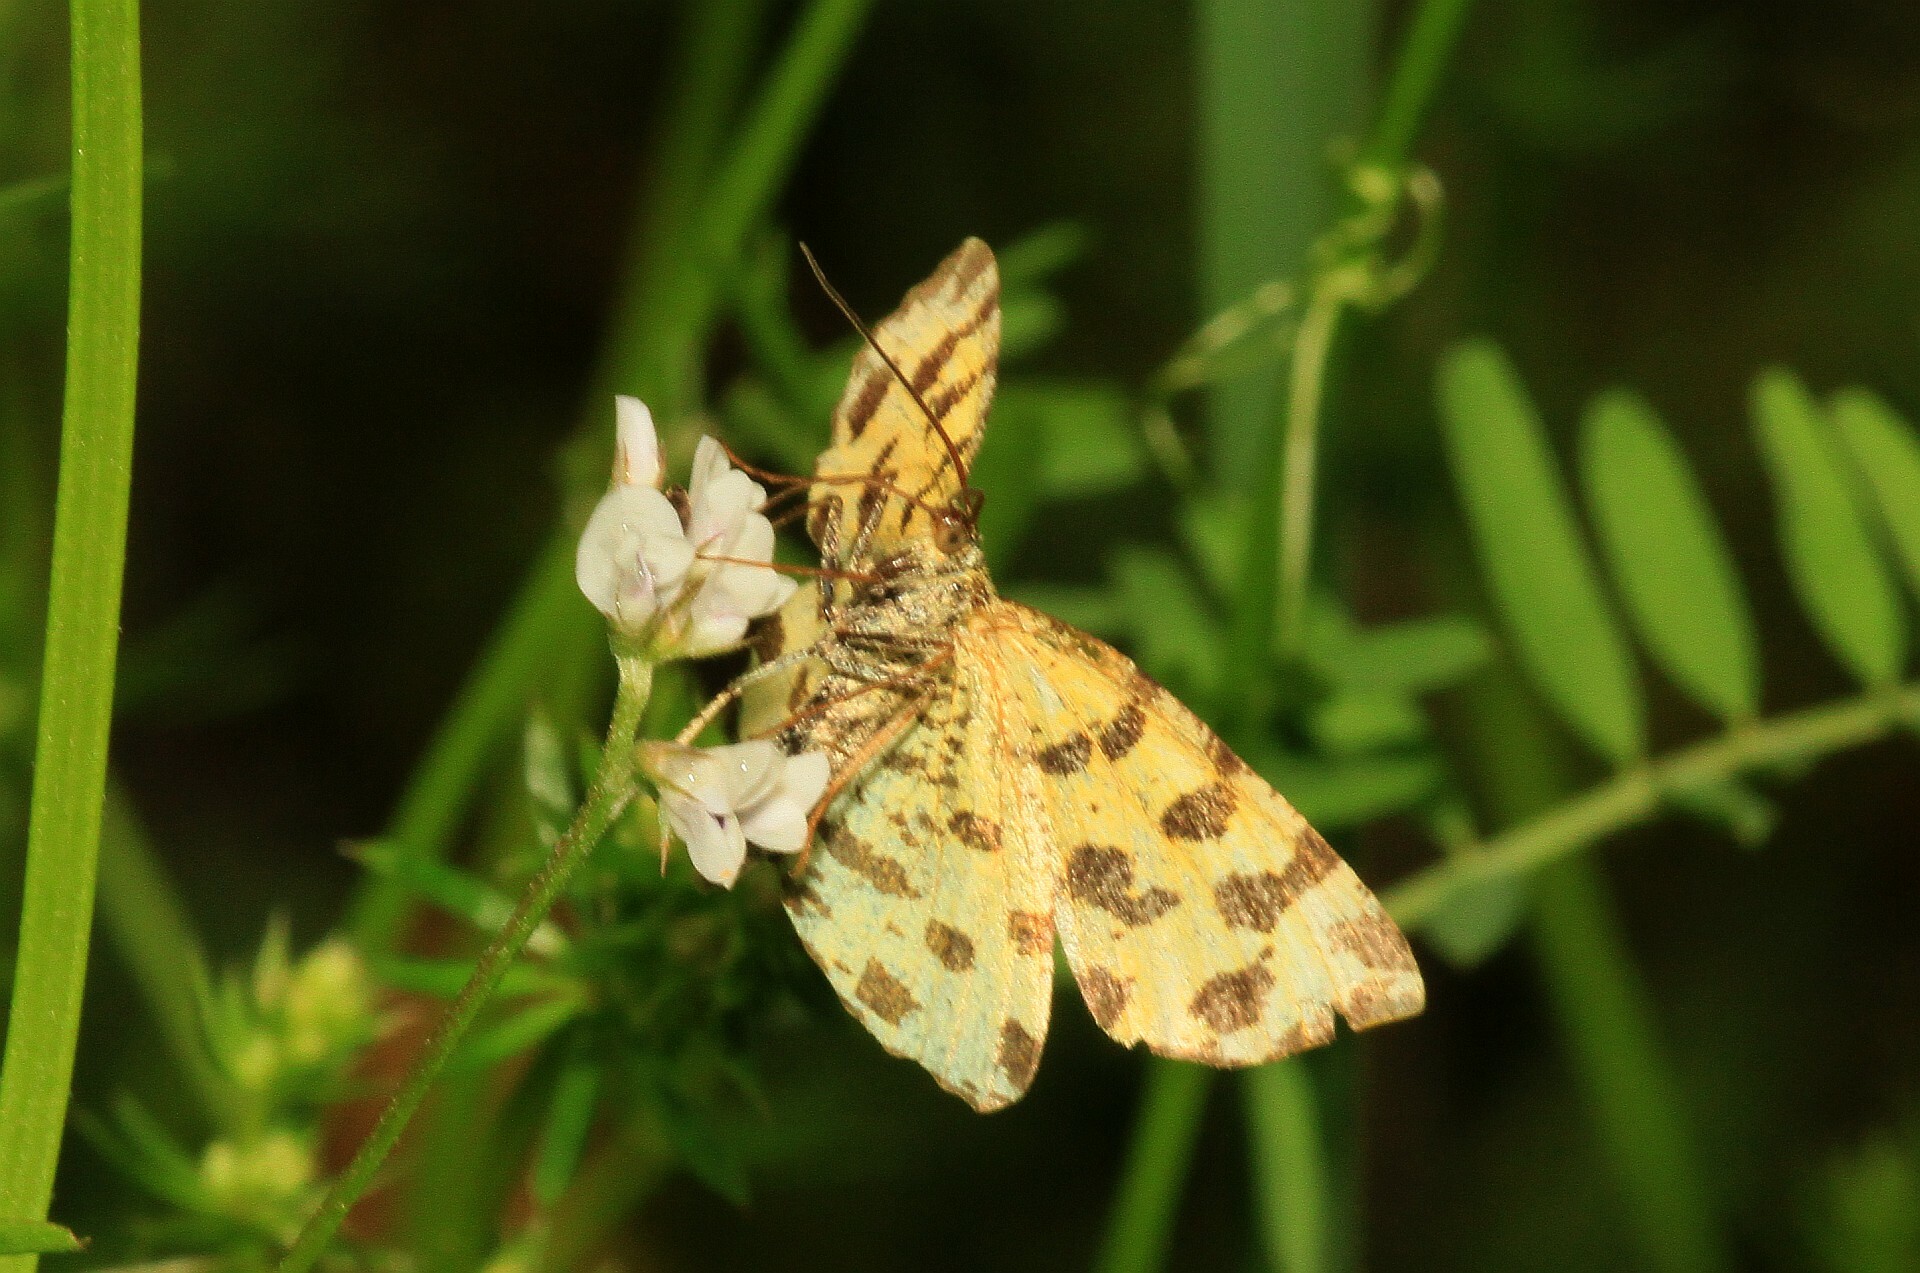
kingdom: Animalia
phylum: Arthropoda
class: Insecta
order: Lepidoptera
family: Geometridae
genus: Pseudopanthera
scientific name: Pseudopanthera macularia
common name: Speckled yellow
